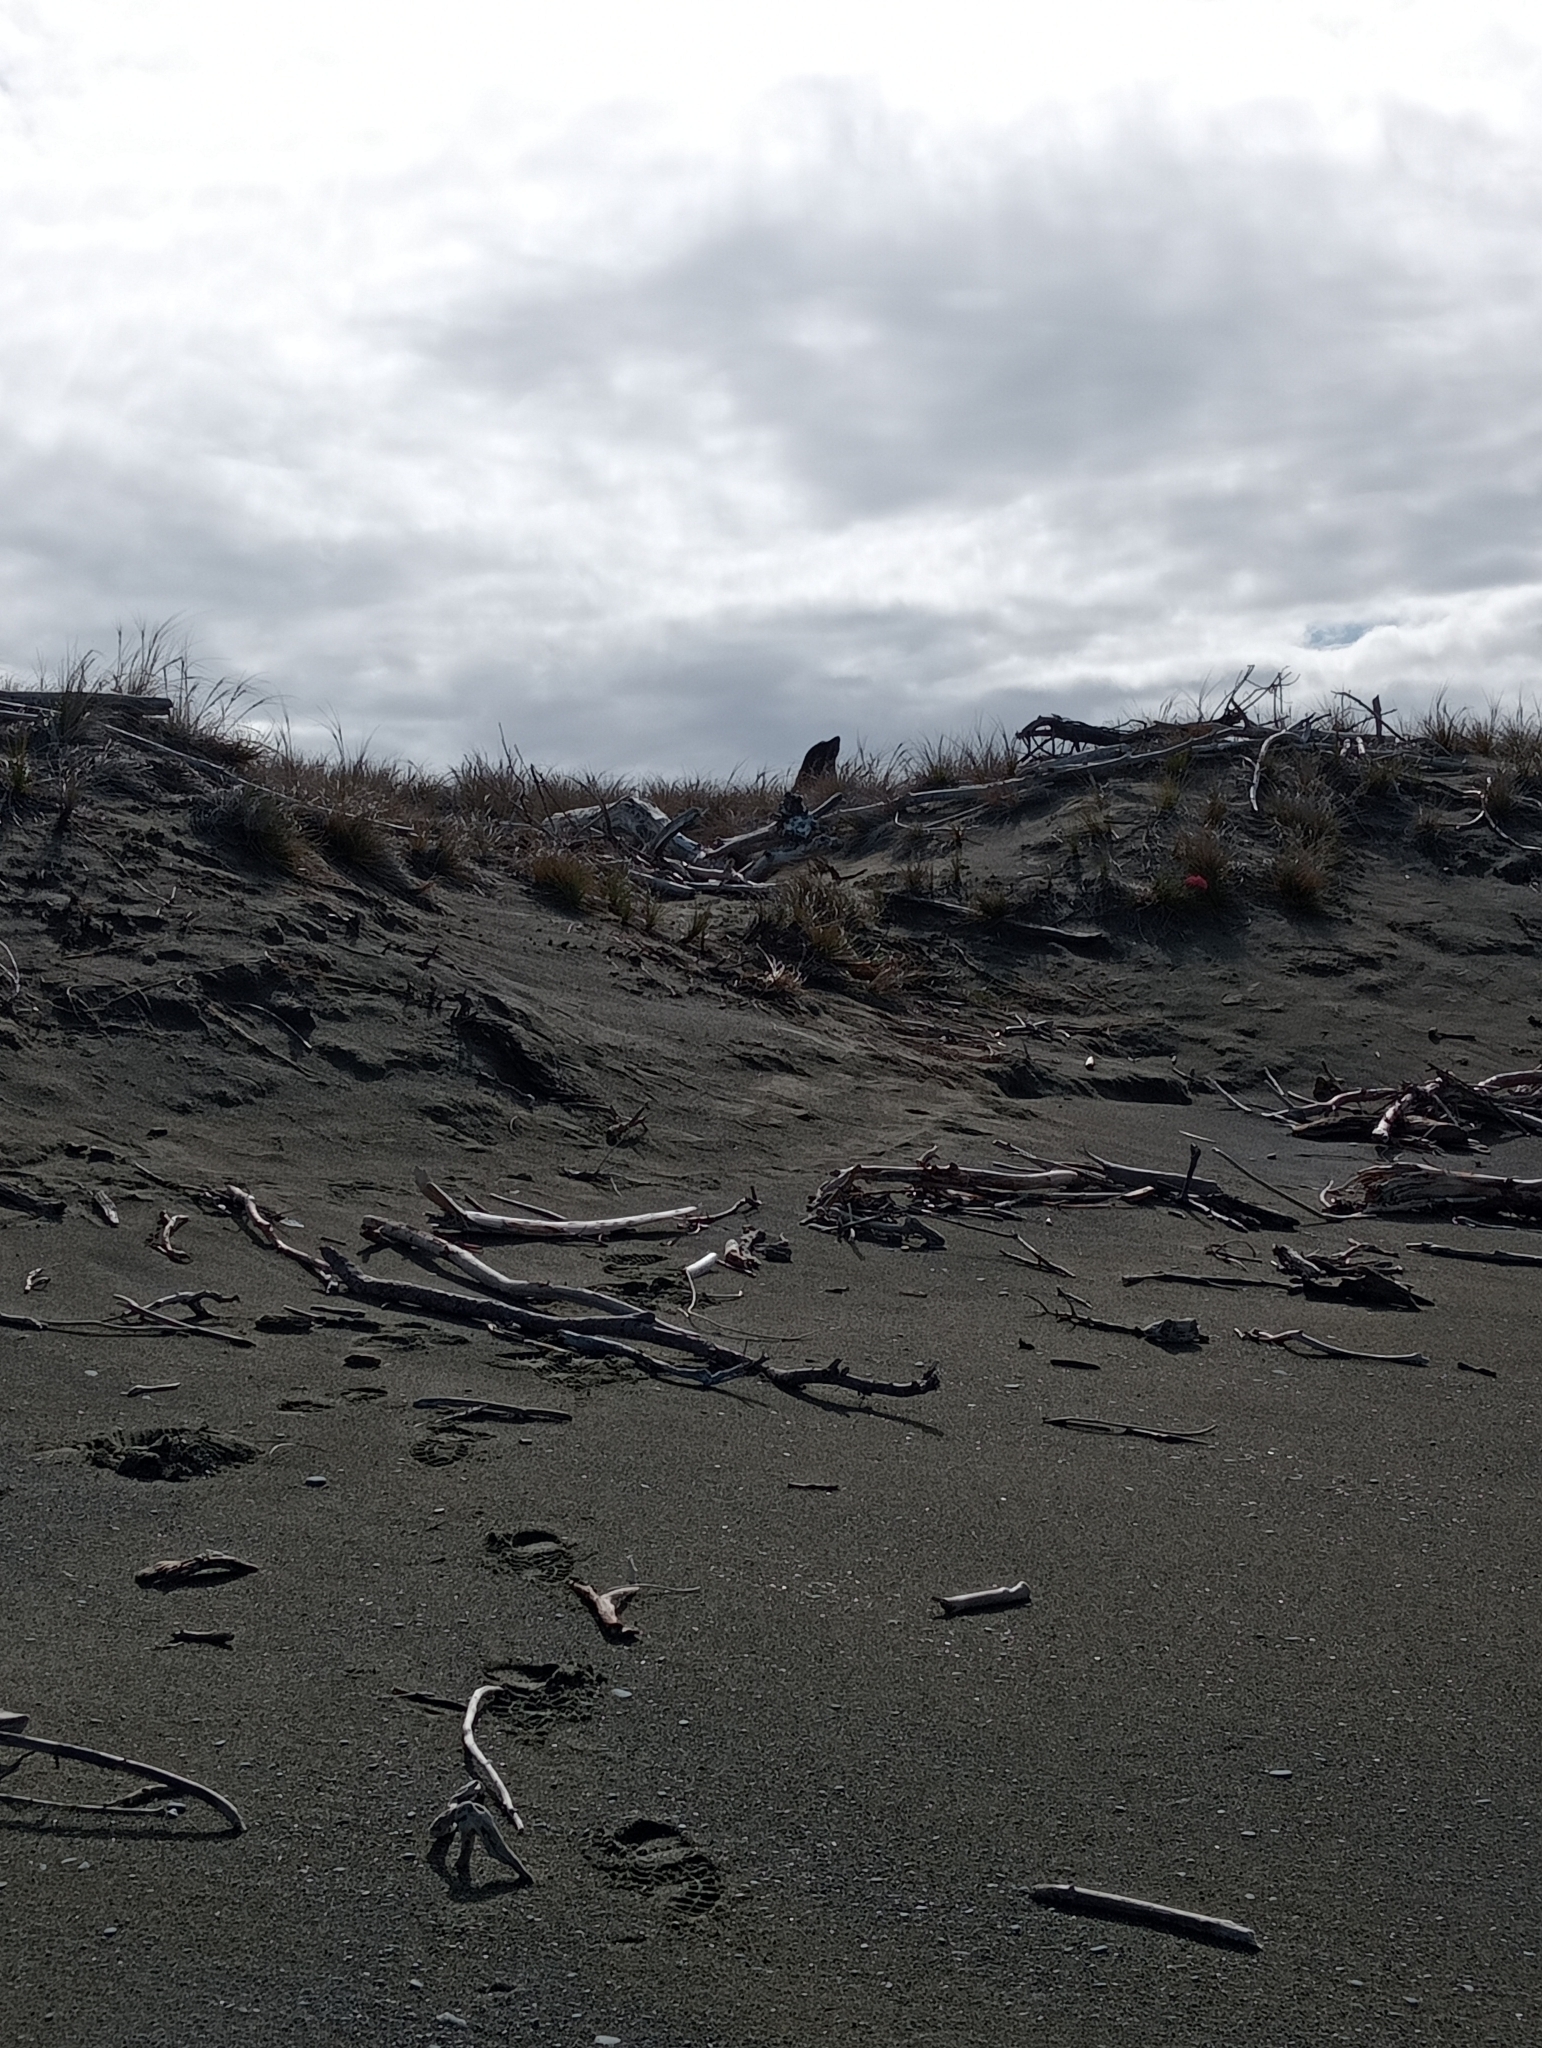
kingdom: Animalia
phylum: Chordata
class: Mammalia
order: Carnivora
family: Otariidae
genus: Arctocephalus
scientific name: Arctocephalus forsteri
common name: New zealand fur seal
